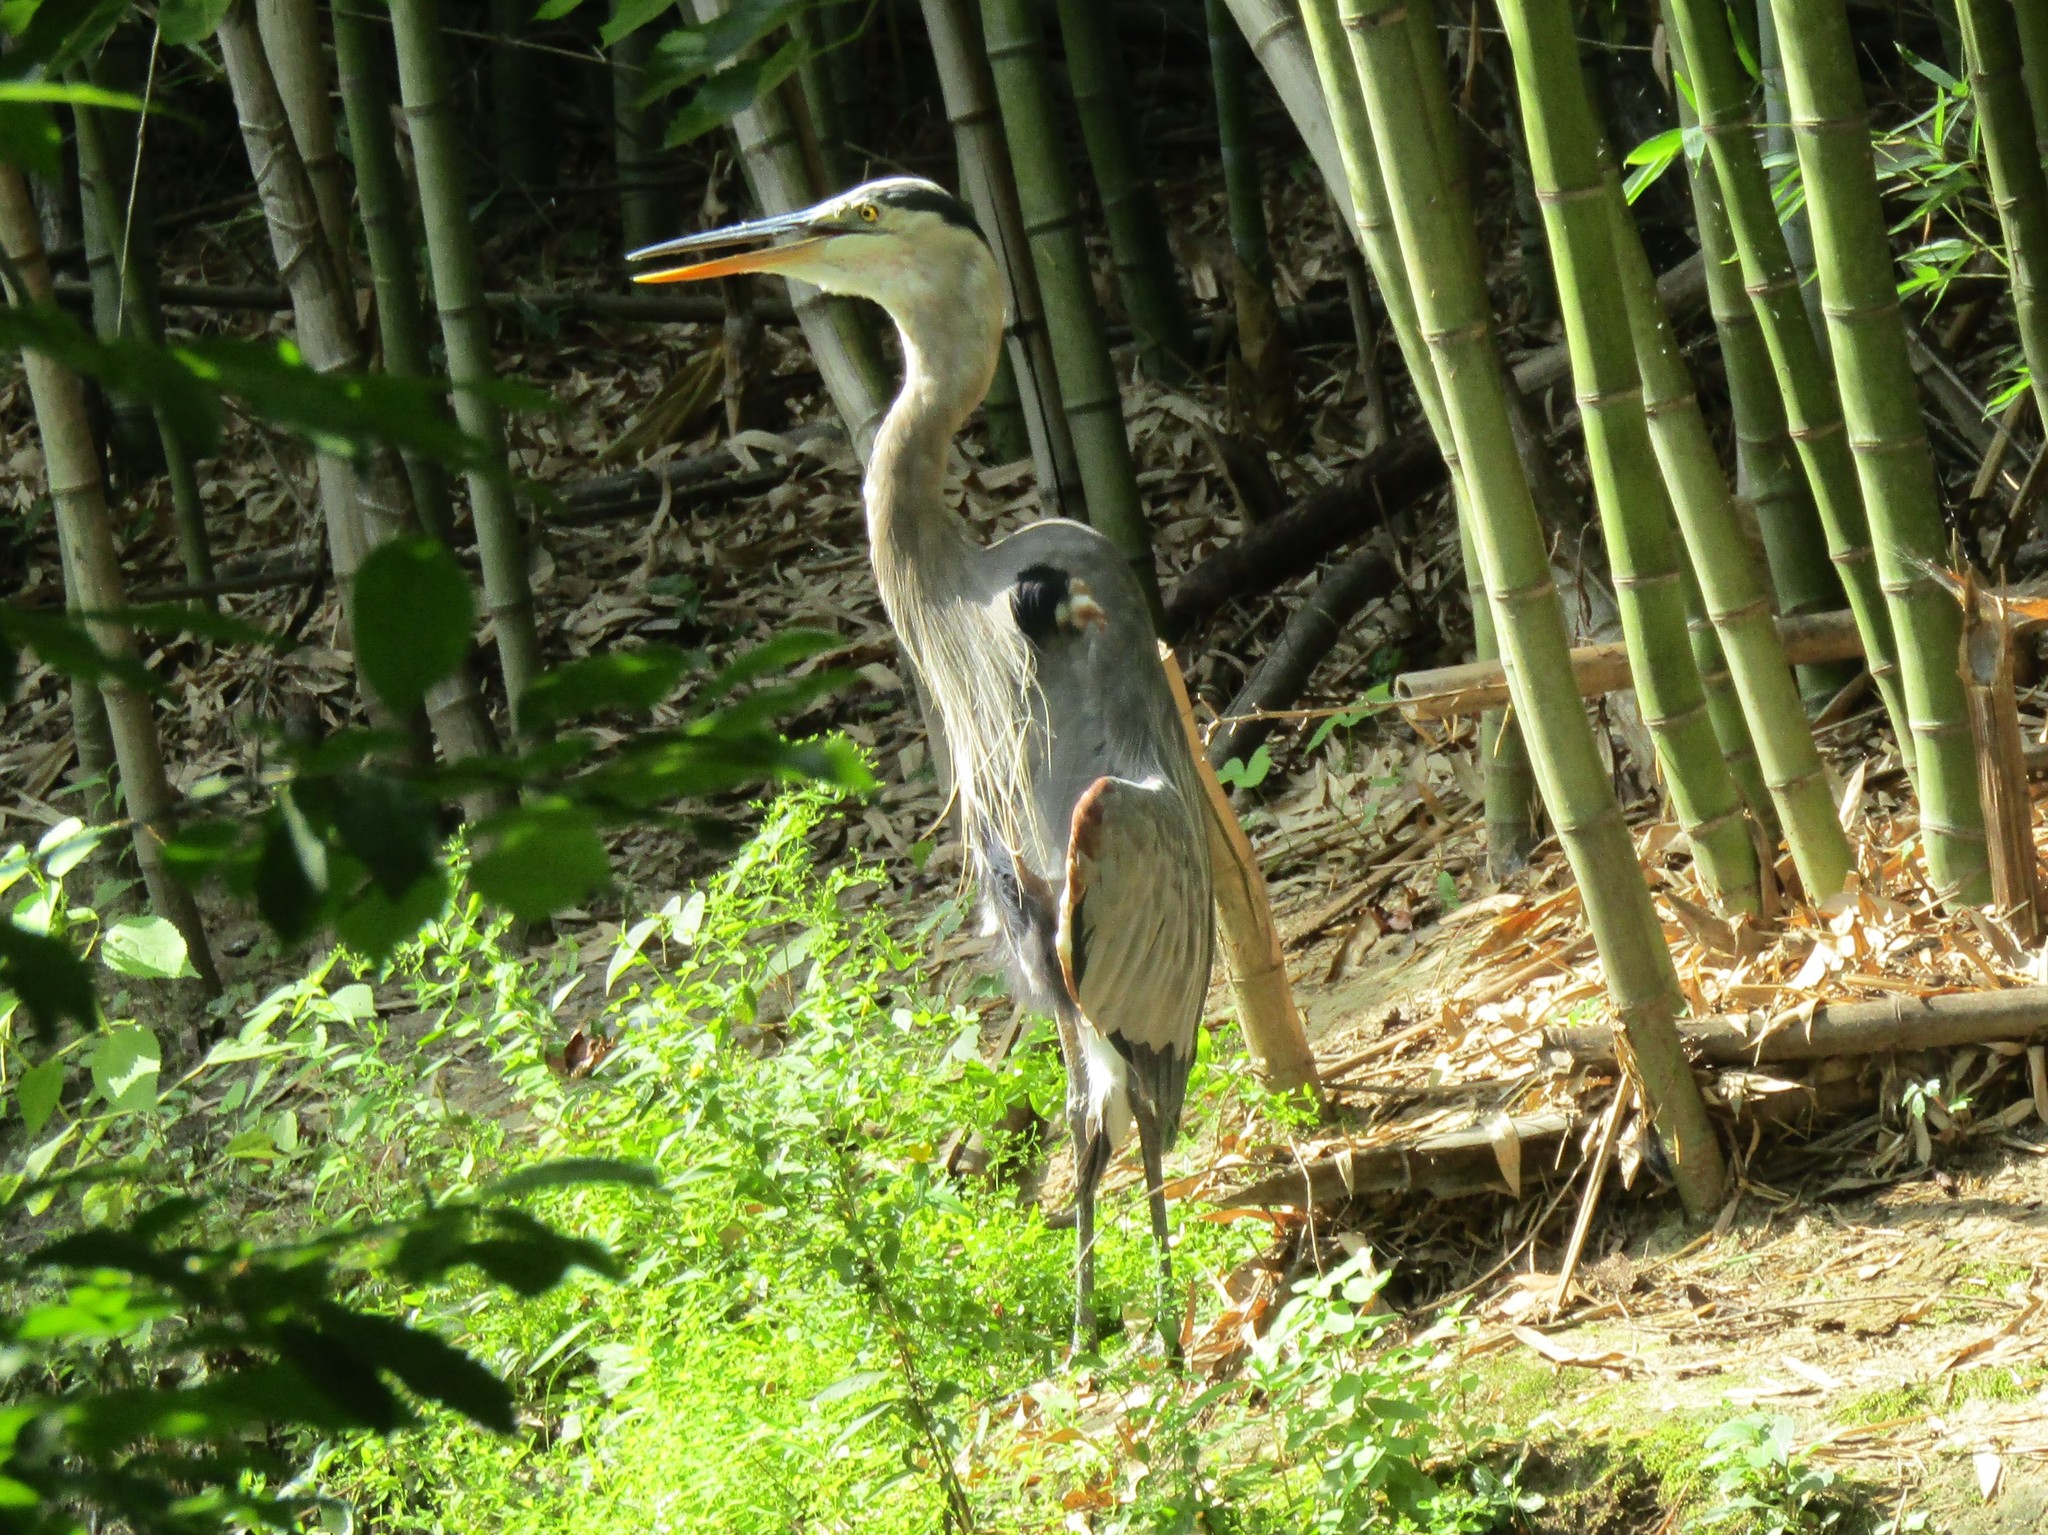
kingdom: Animalia
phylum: Chordata
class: Aves
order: Pelecaniformes
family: Ardeidae
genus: Ardea
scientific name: Ardea herodias
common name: Great blue heron
